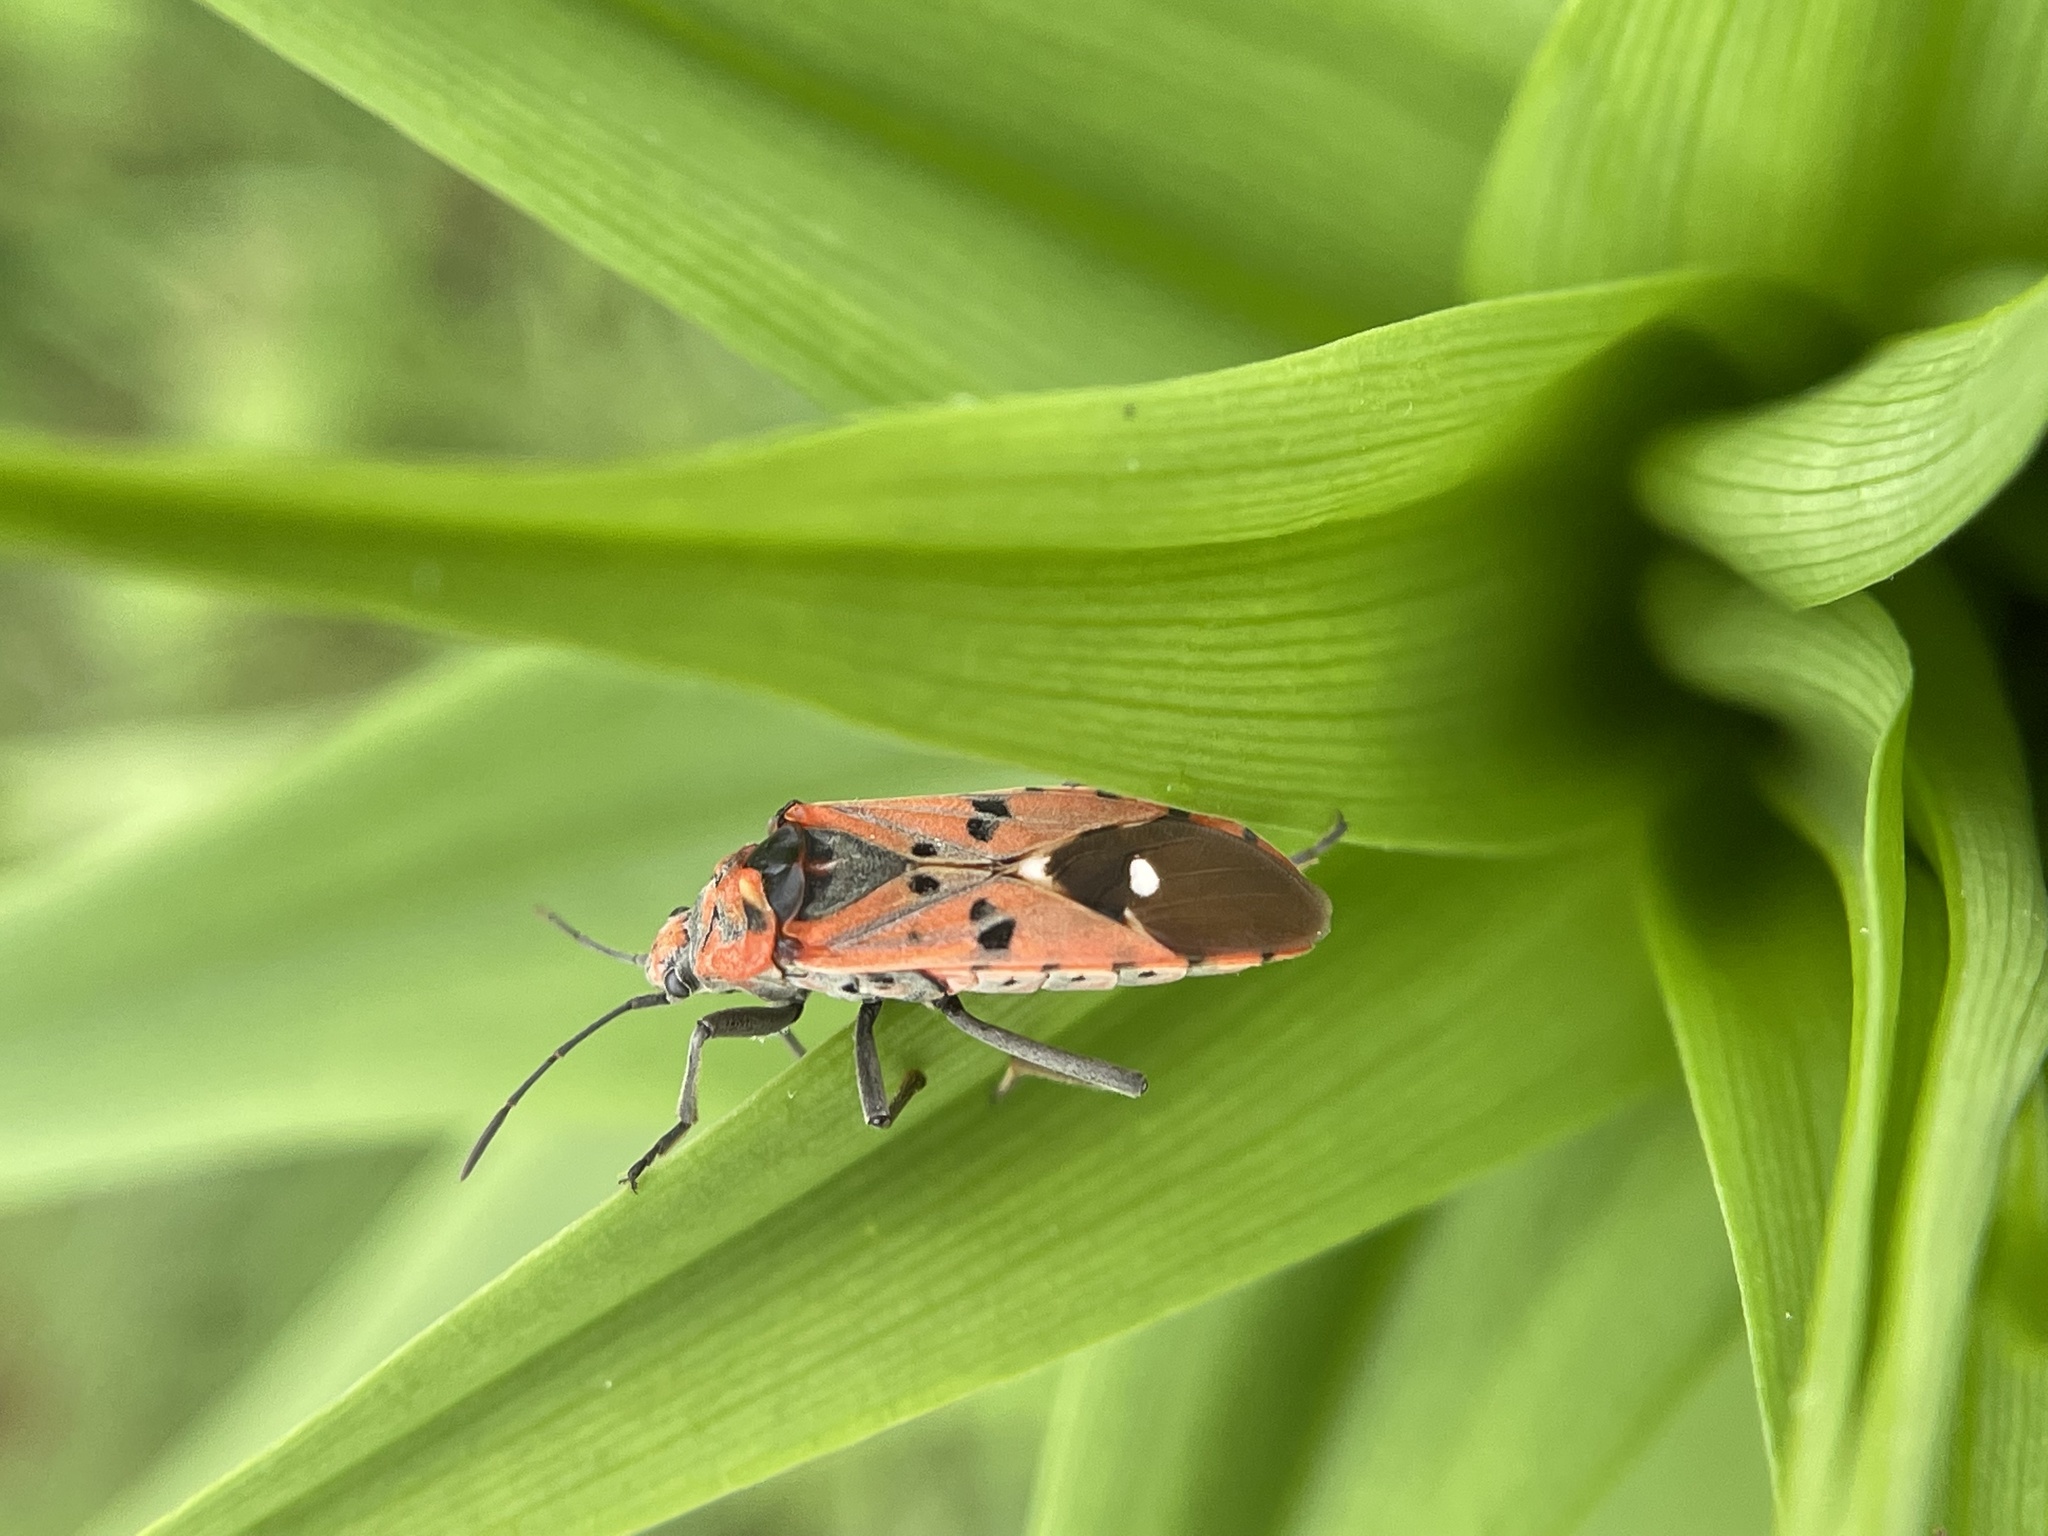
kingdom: Animalia
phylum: Arthropoda
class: Insecta
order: Hemiptera
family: Lygaeidae
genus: Spilostethus
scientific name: Spilostethus pandurus
